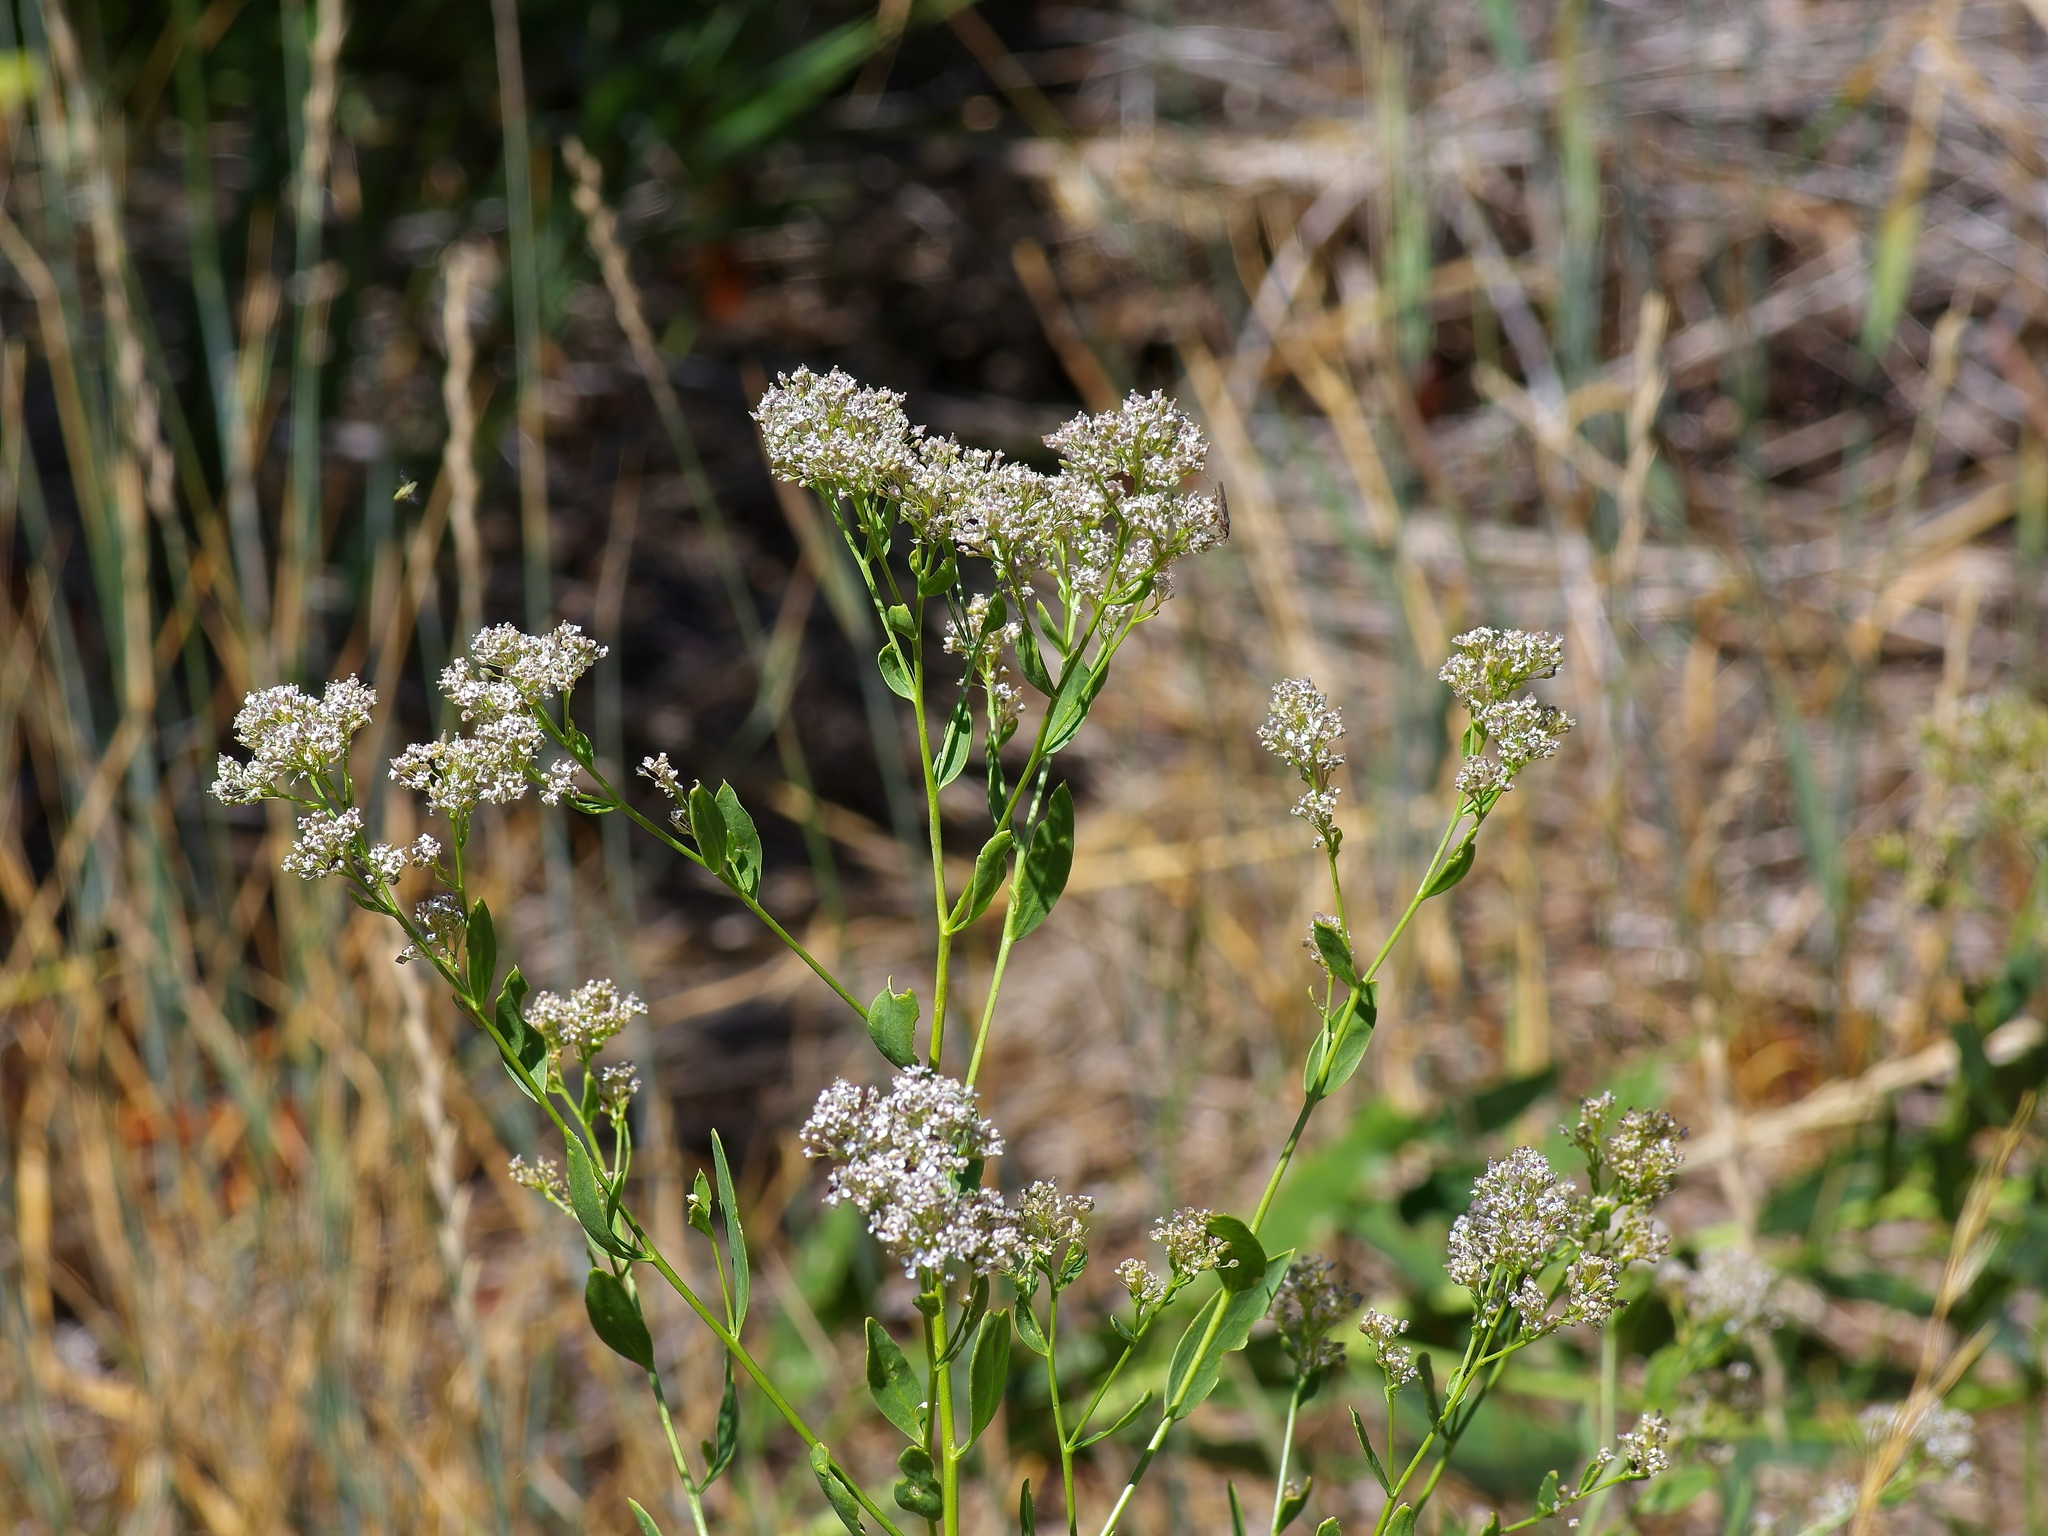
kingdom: Plantae
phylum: Tracheophyta
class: Magnoliopsida
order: Brassicales
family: Brassicaceae
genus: Lepidium
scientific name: Lepidium latifolium
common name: Dittander
